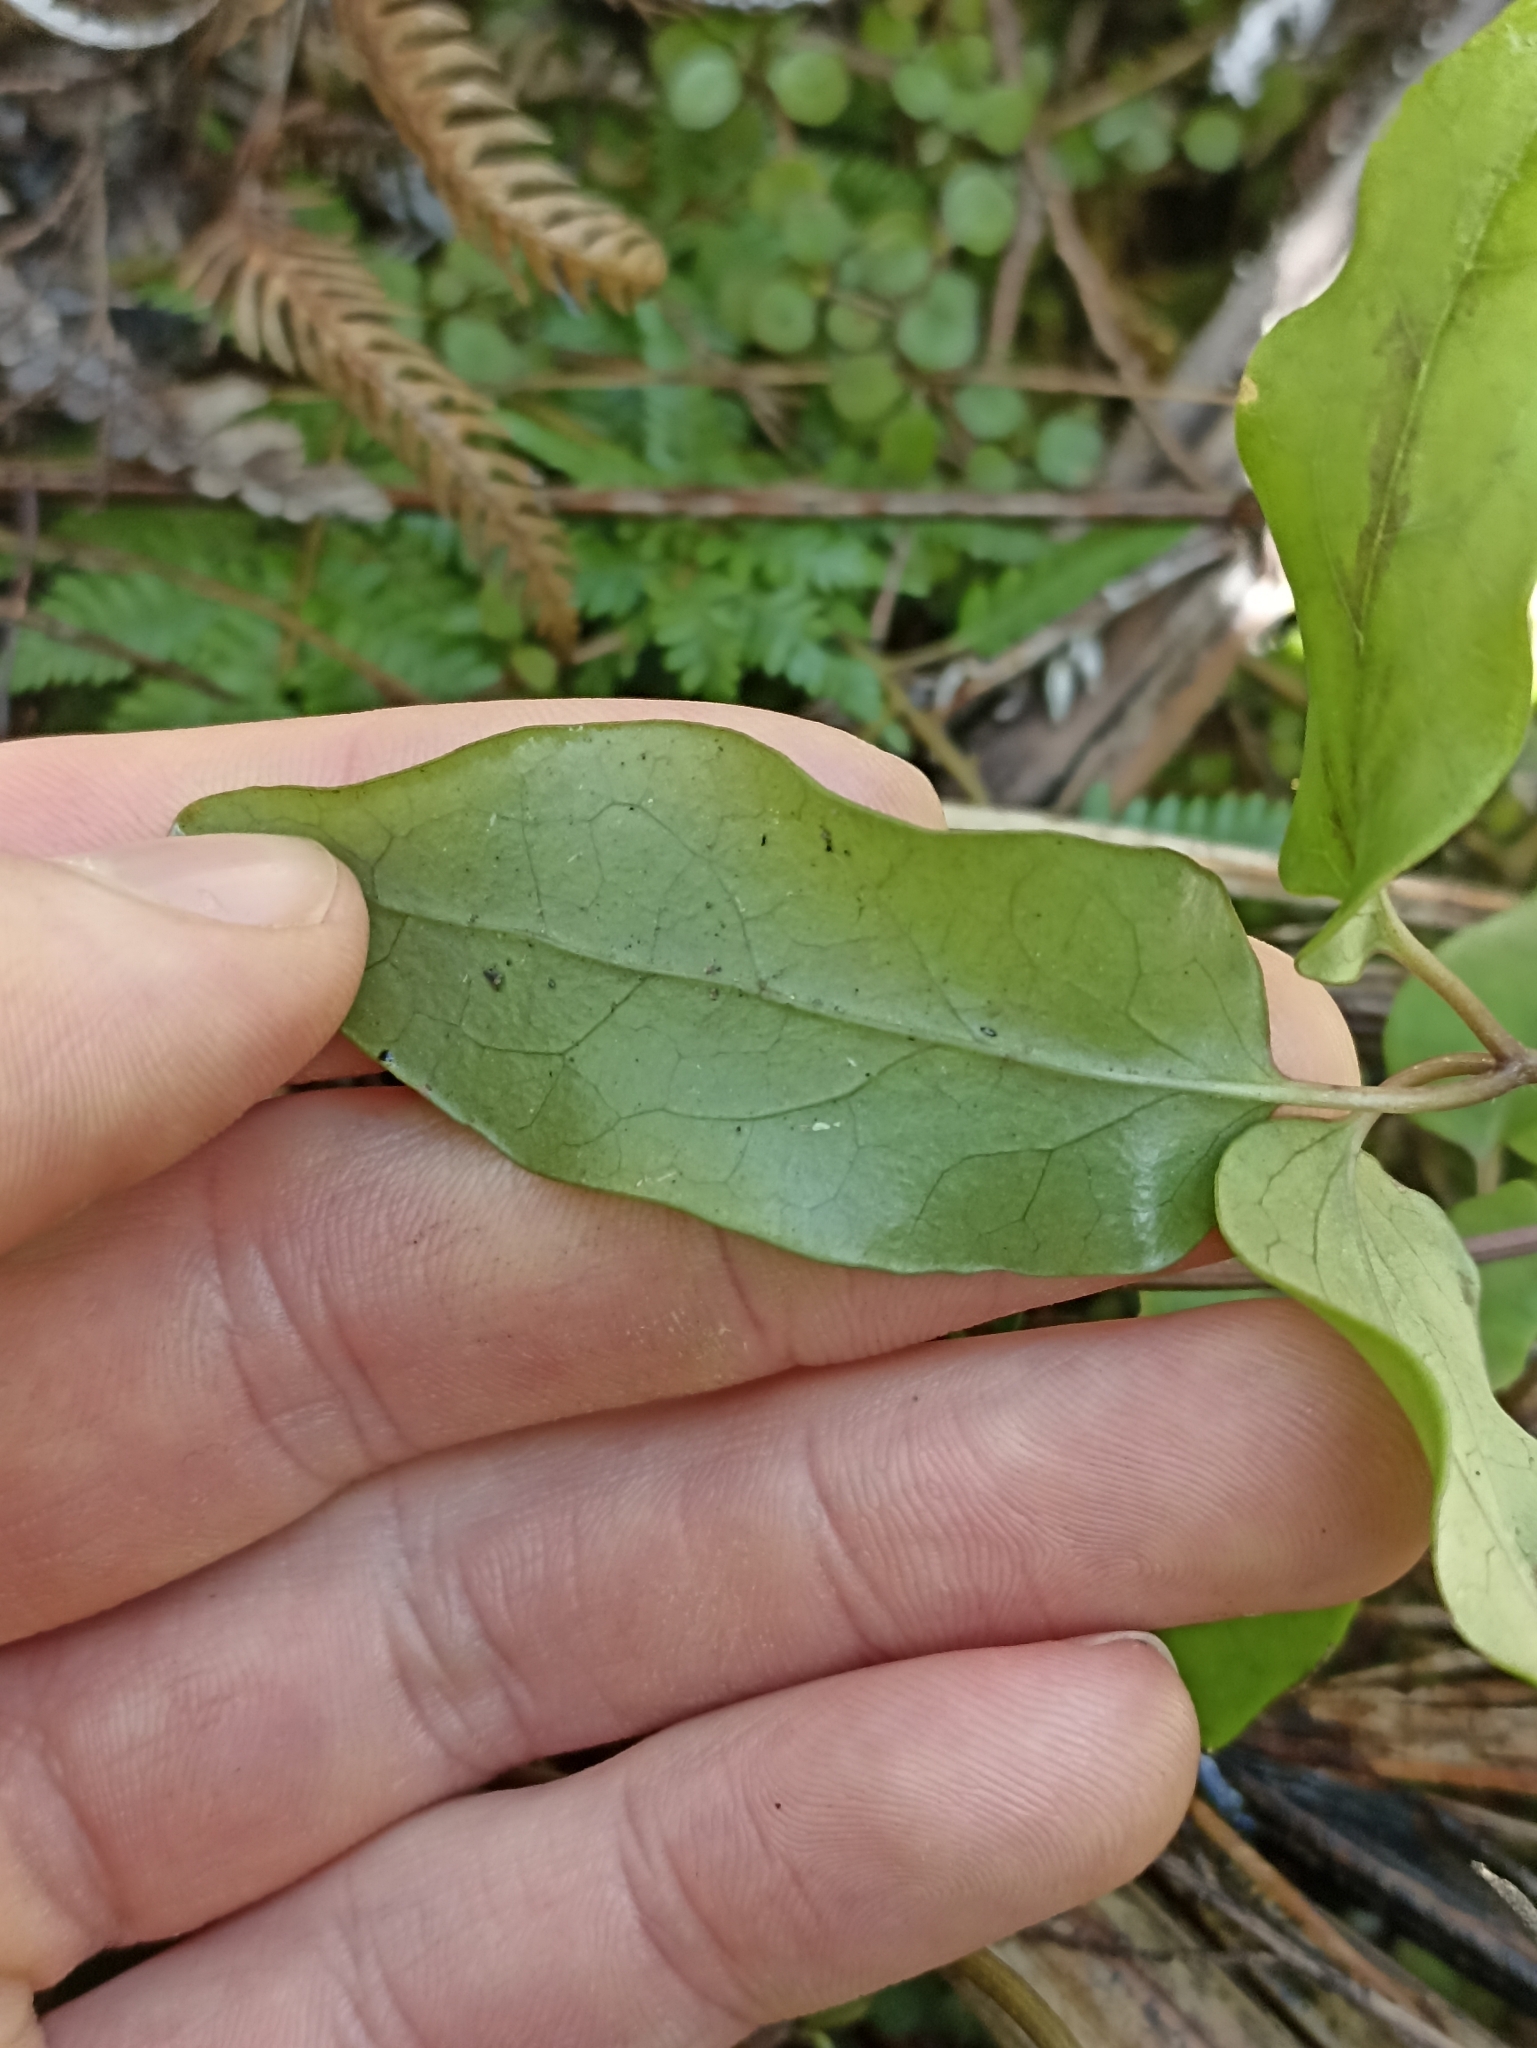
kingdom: Plantae
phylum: Tracheophyta
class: Magnoliopsida
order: Ranunculales
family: Ranunculaceae
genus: Clematis
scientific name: Clematis paniculata
